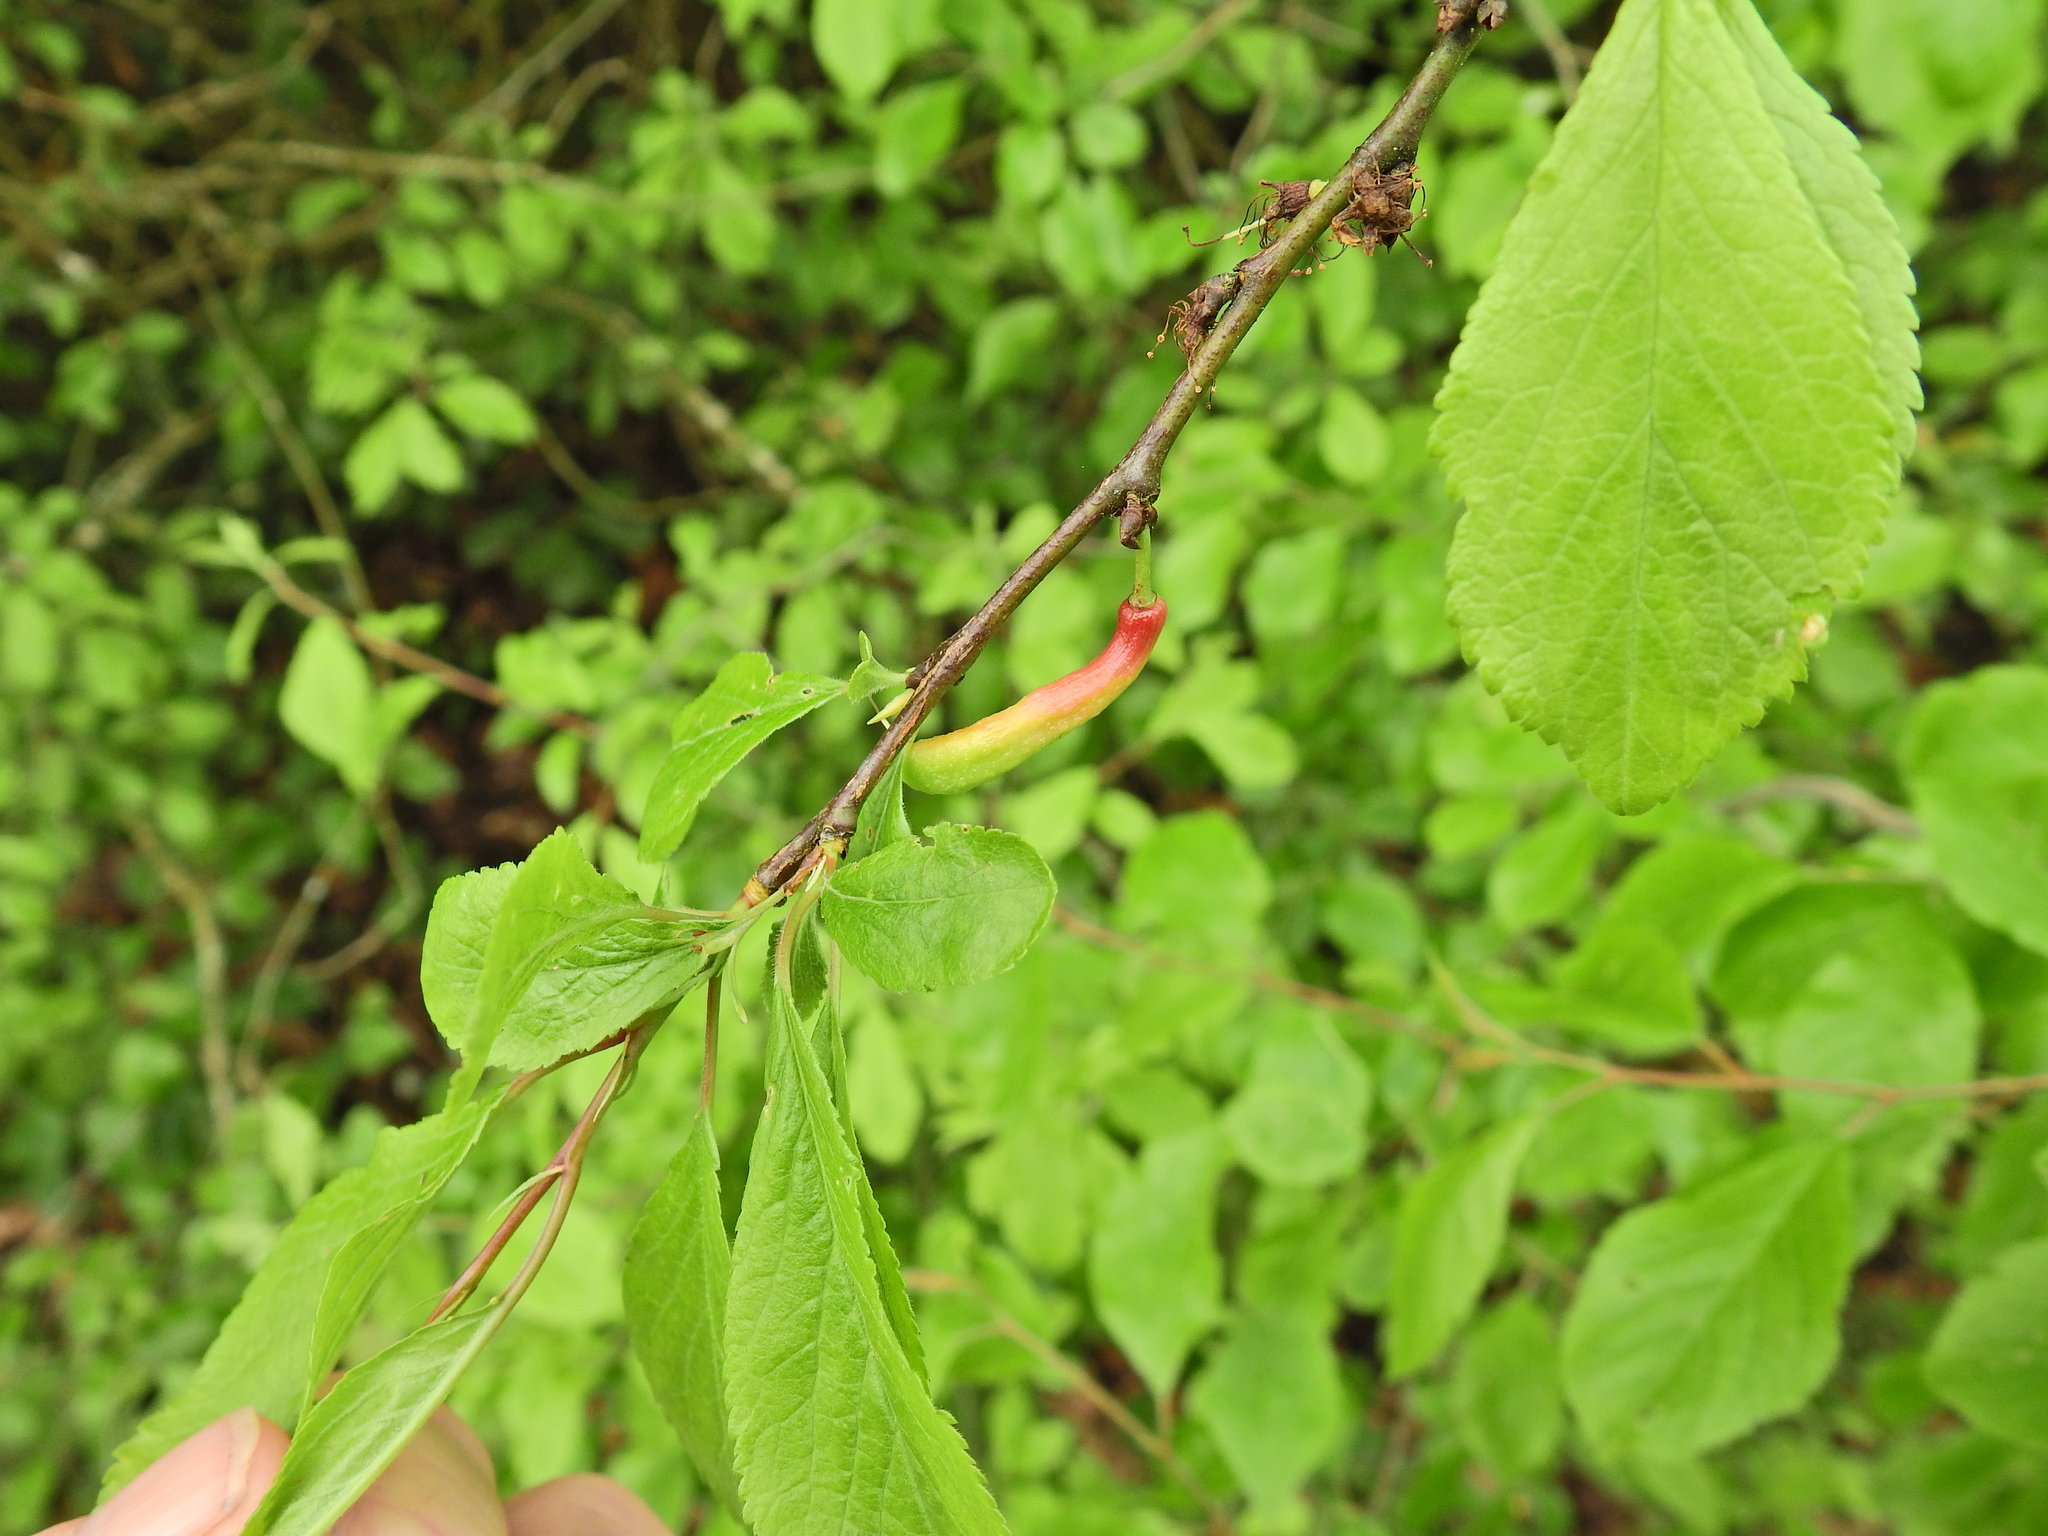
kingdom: Fungi
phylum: Ascomycota
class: Taphrinomycetes
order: Taphrinales
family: Taphrinaceae
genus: Taphrina
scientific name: Taphrina pruni
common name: Pocket plum
